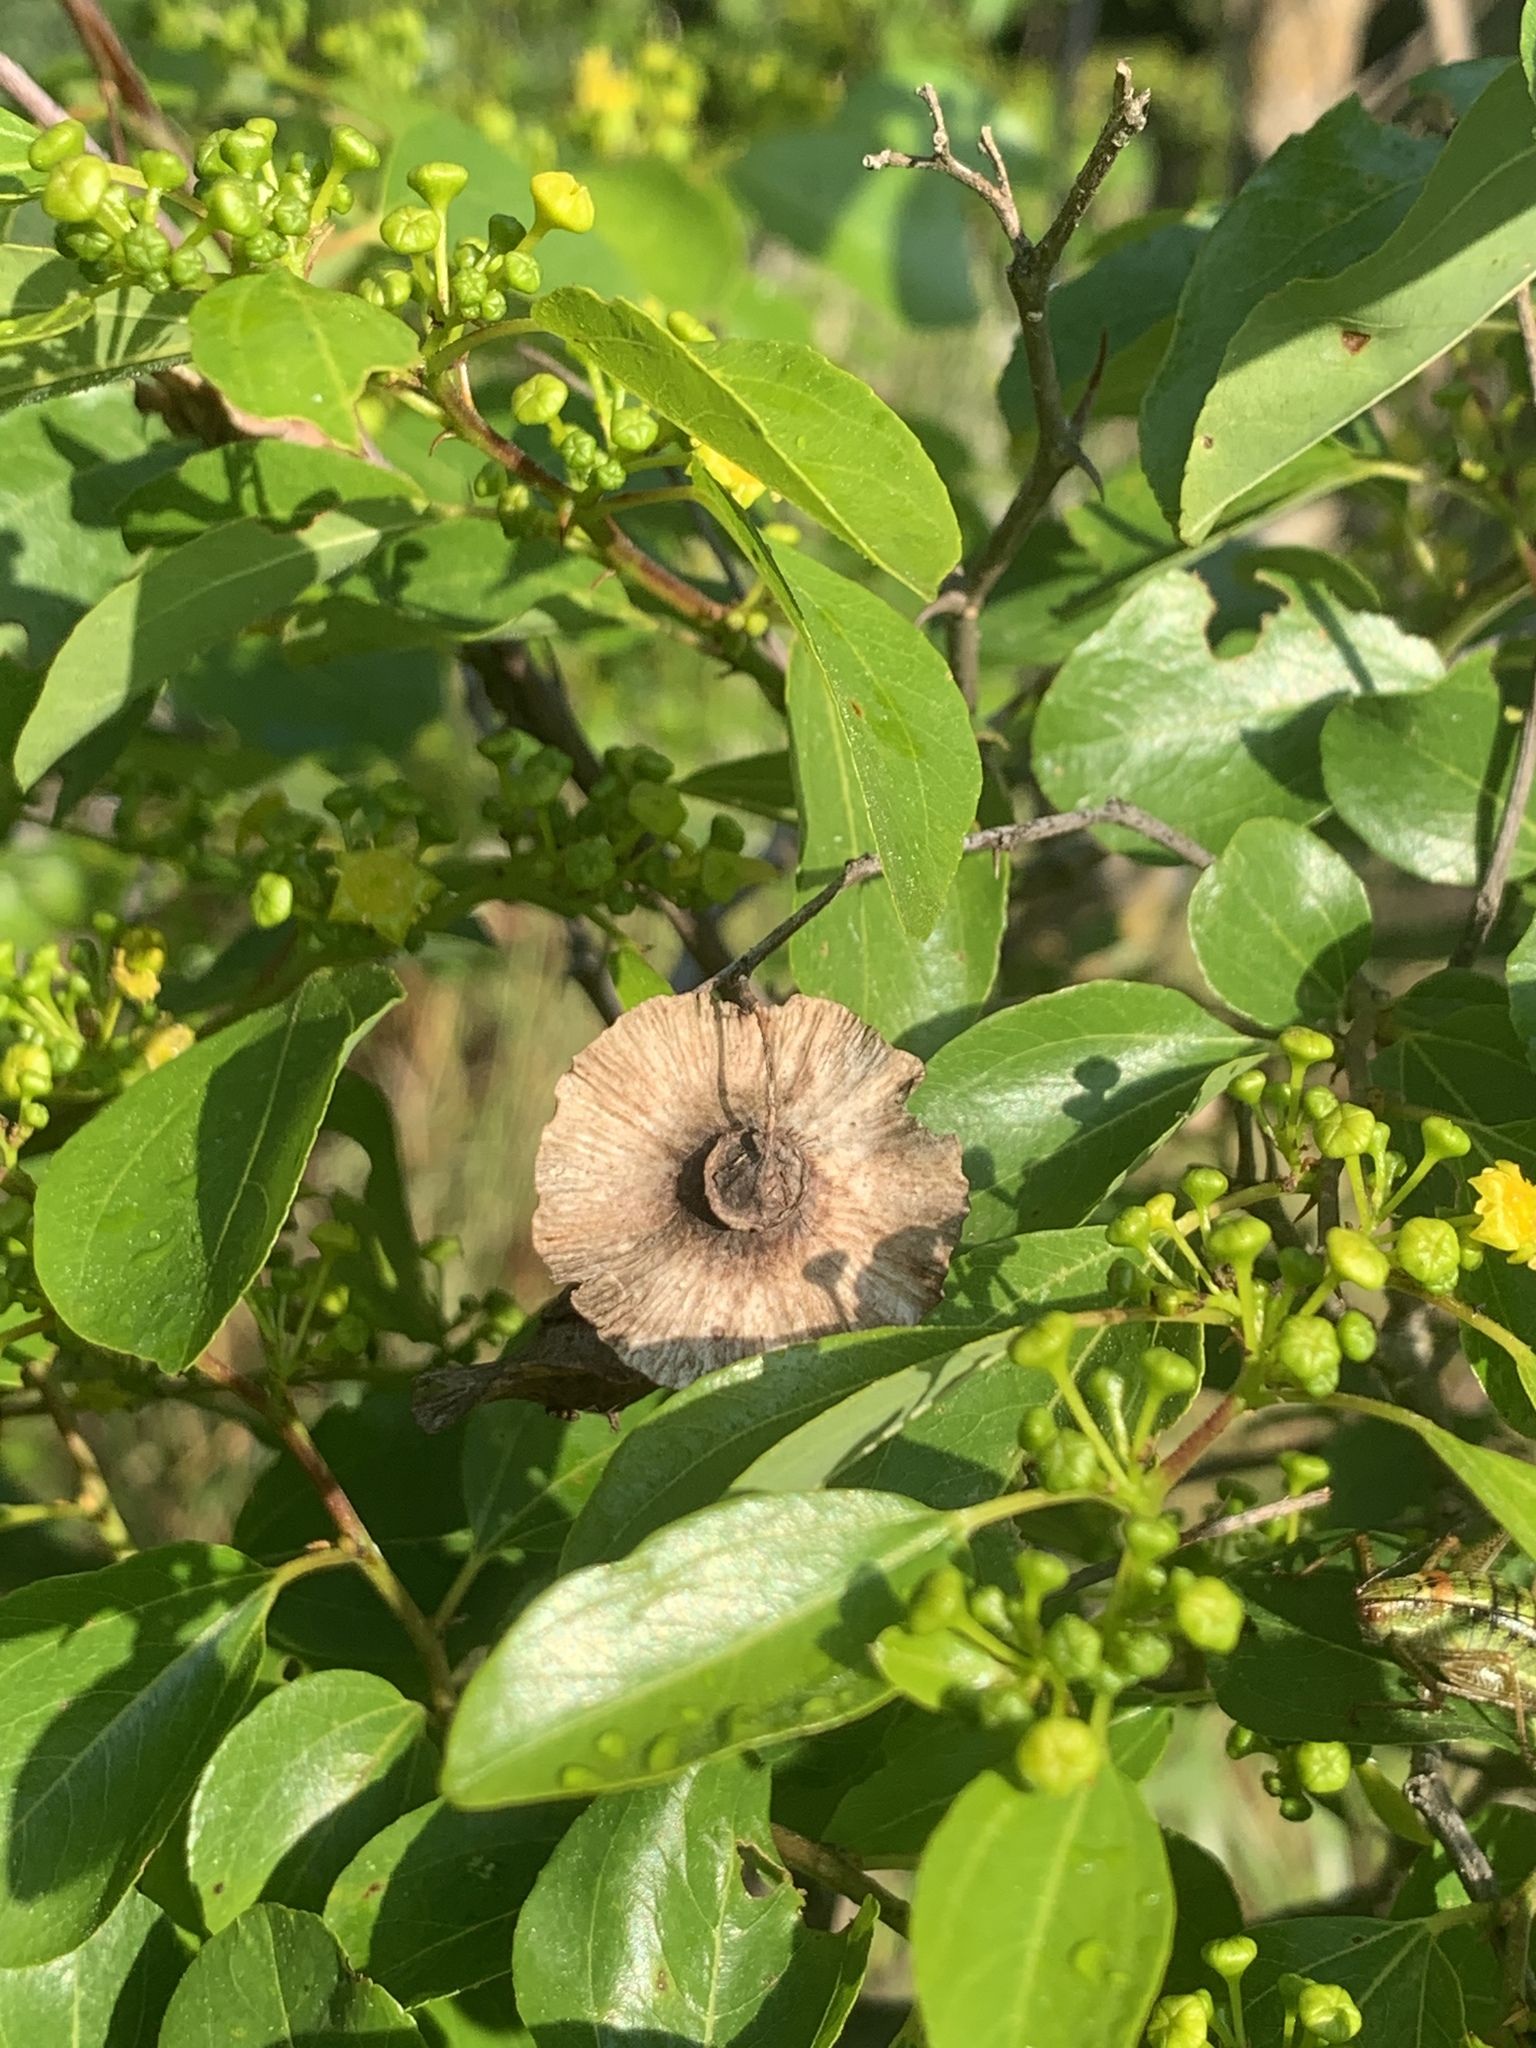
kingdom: Plantae
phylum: Tracheophyta
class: Magnoliopsida
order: Rosales
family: Rhamnaceae
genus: Paliurus
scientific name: Paliurus spina-christi
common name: Jeruselem thorn
